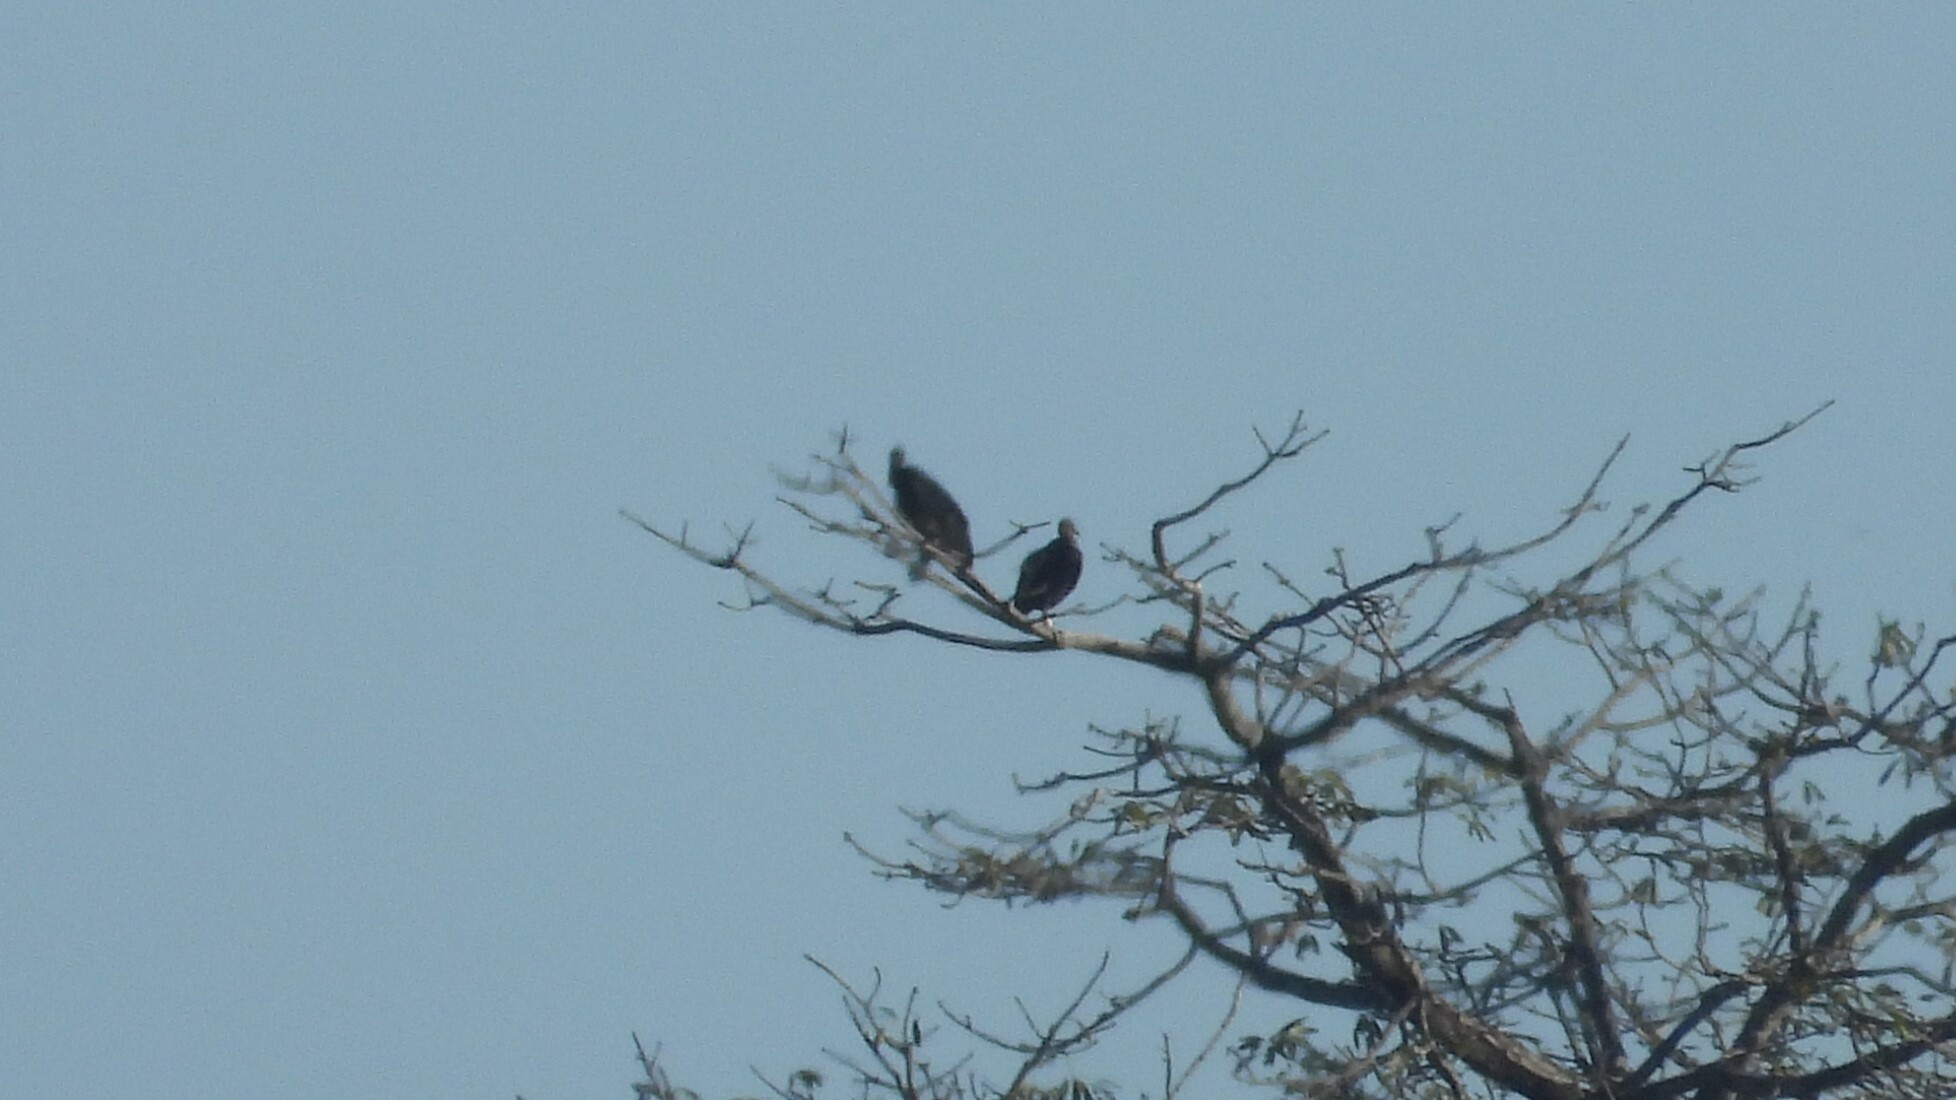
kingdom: Animalia
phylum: Chordata
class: Aves
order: Accipitriformes
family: Cathartidae
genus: Coragyps
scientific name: Coragyps atratus
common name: Black vulture
